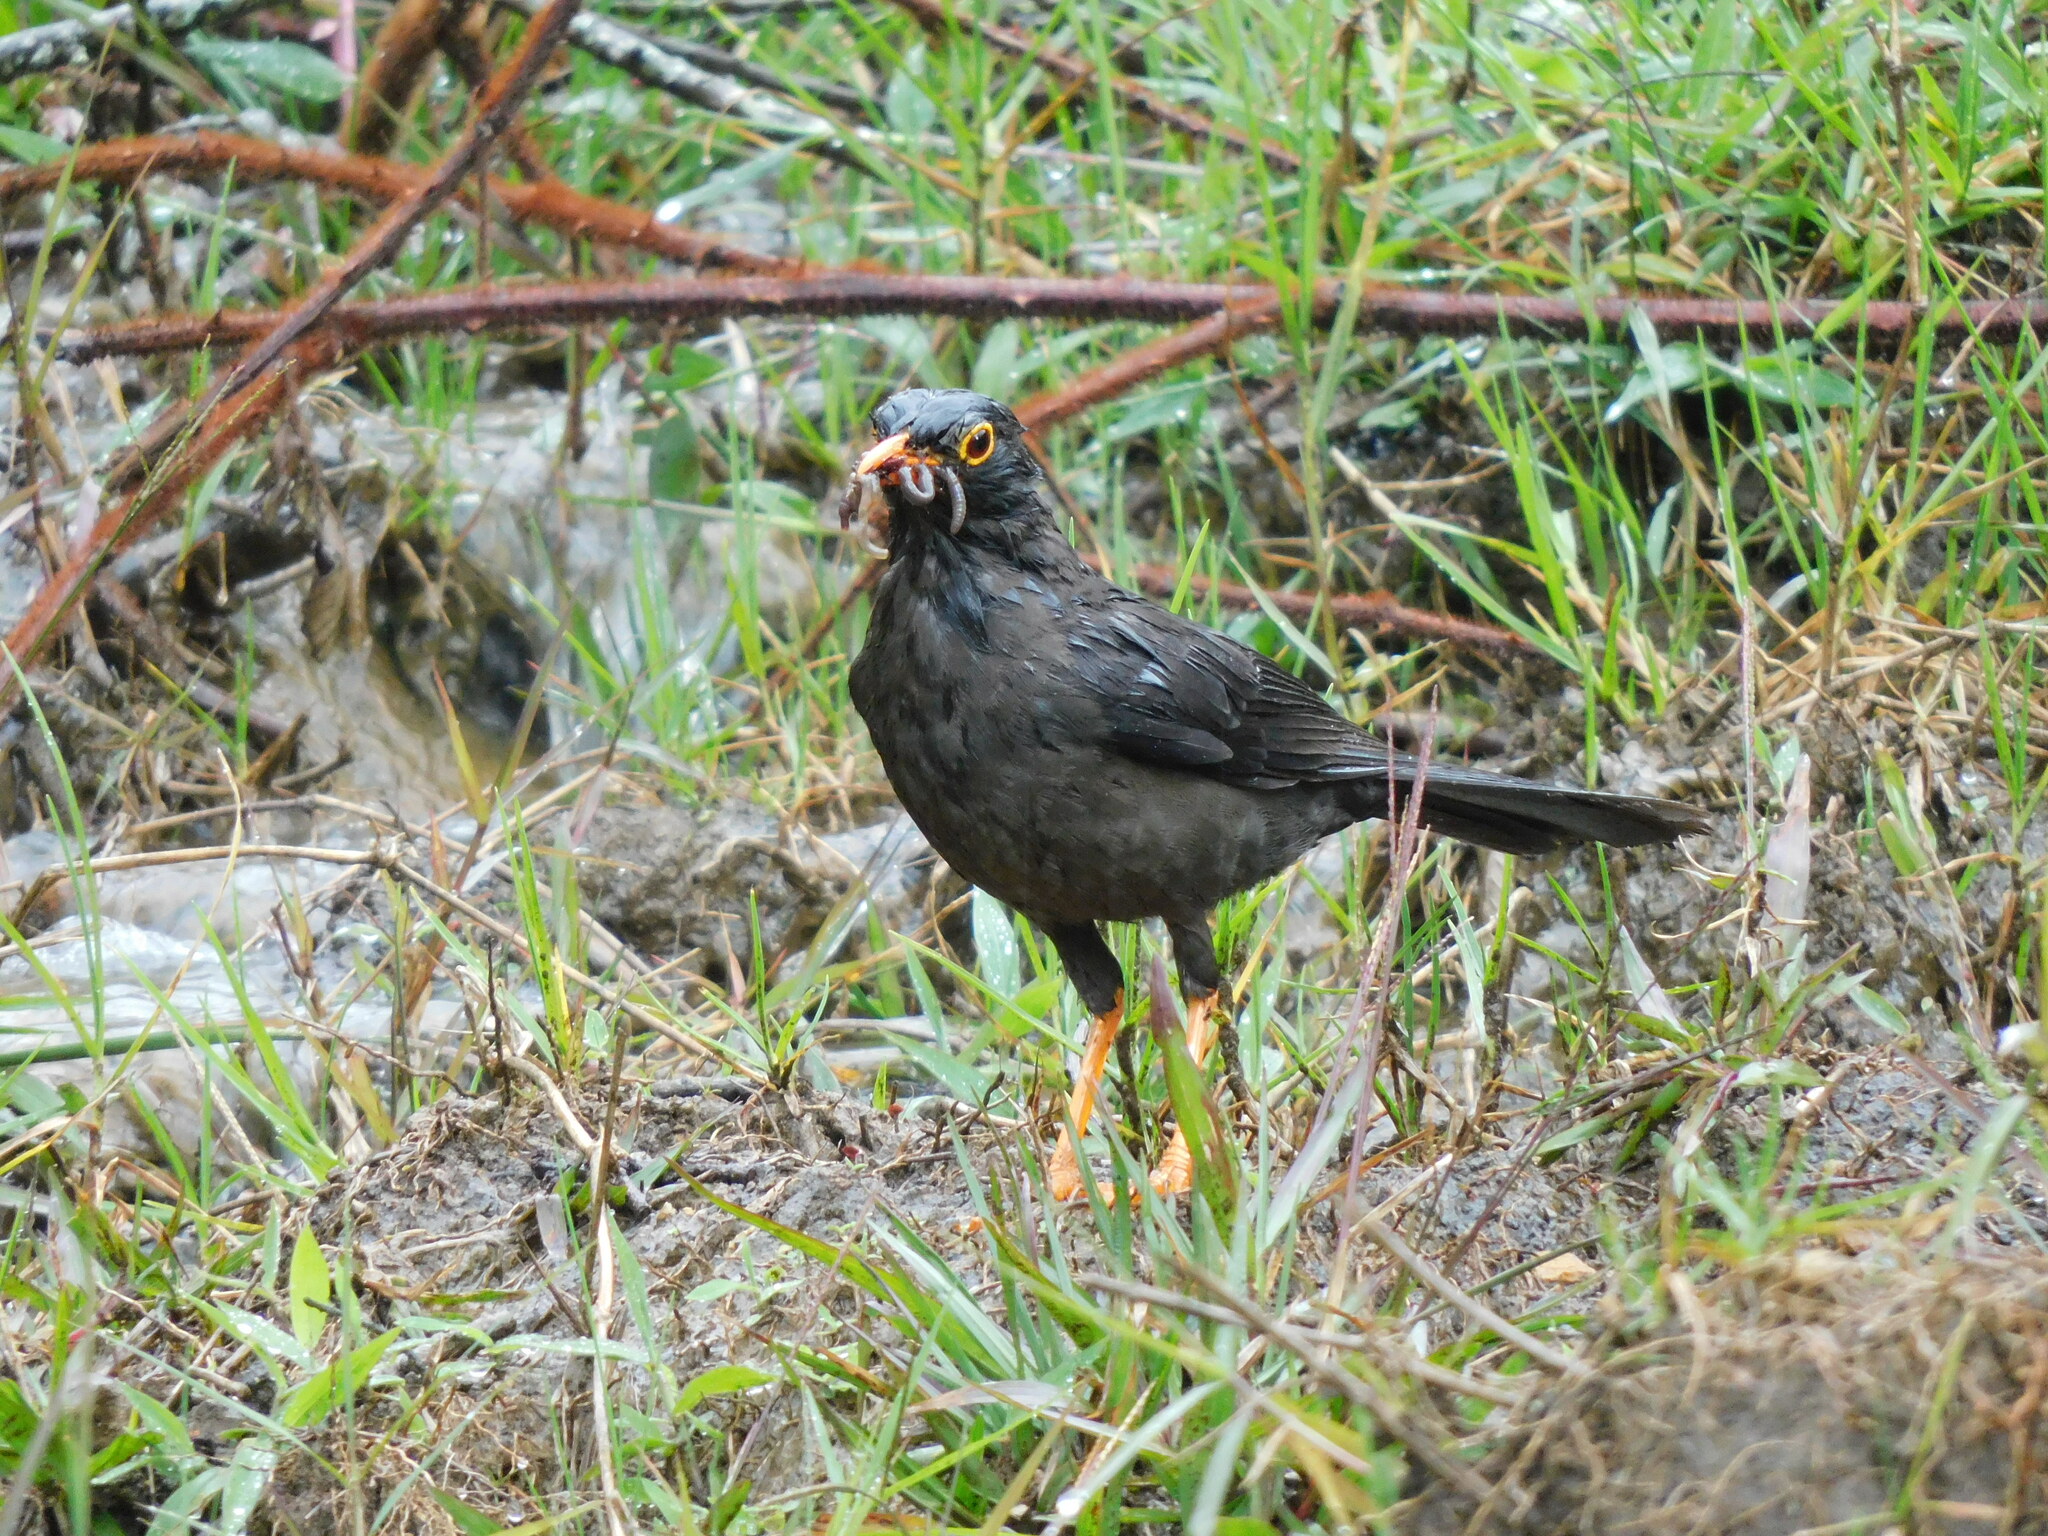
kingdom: Animalia
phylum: Chordata
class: Aves
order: Passeriformes
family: Turdidae
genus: Turdus
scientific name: Turdus fuscater
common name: Great thrush
